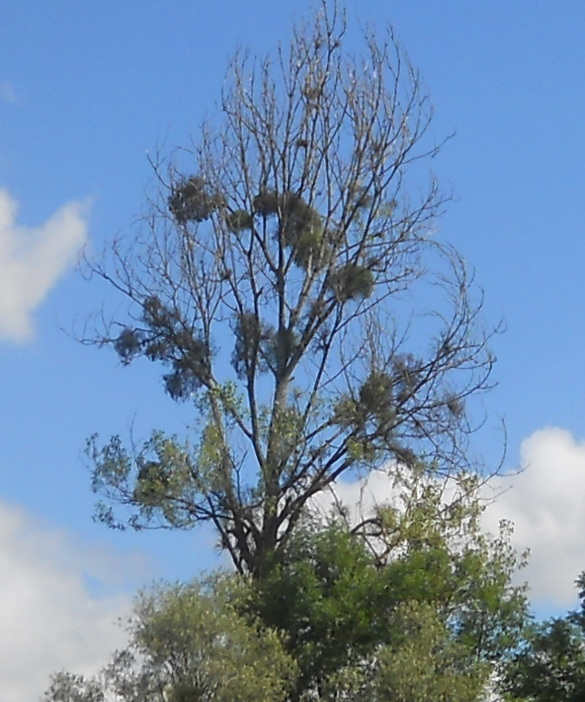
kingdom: Plantae
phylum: Tracheophyta
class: Magnoliopsida
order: Santalales
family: Viscaceae
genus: Viscum
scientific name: Viscum album
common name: Mistletoe
